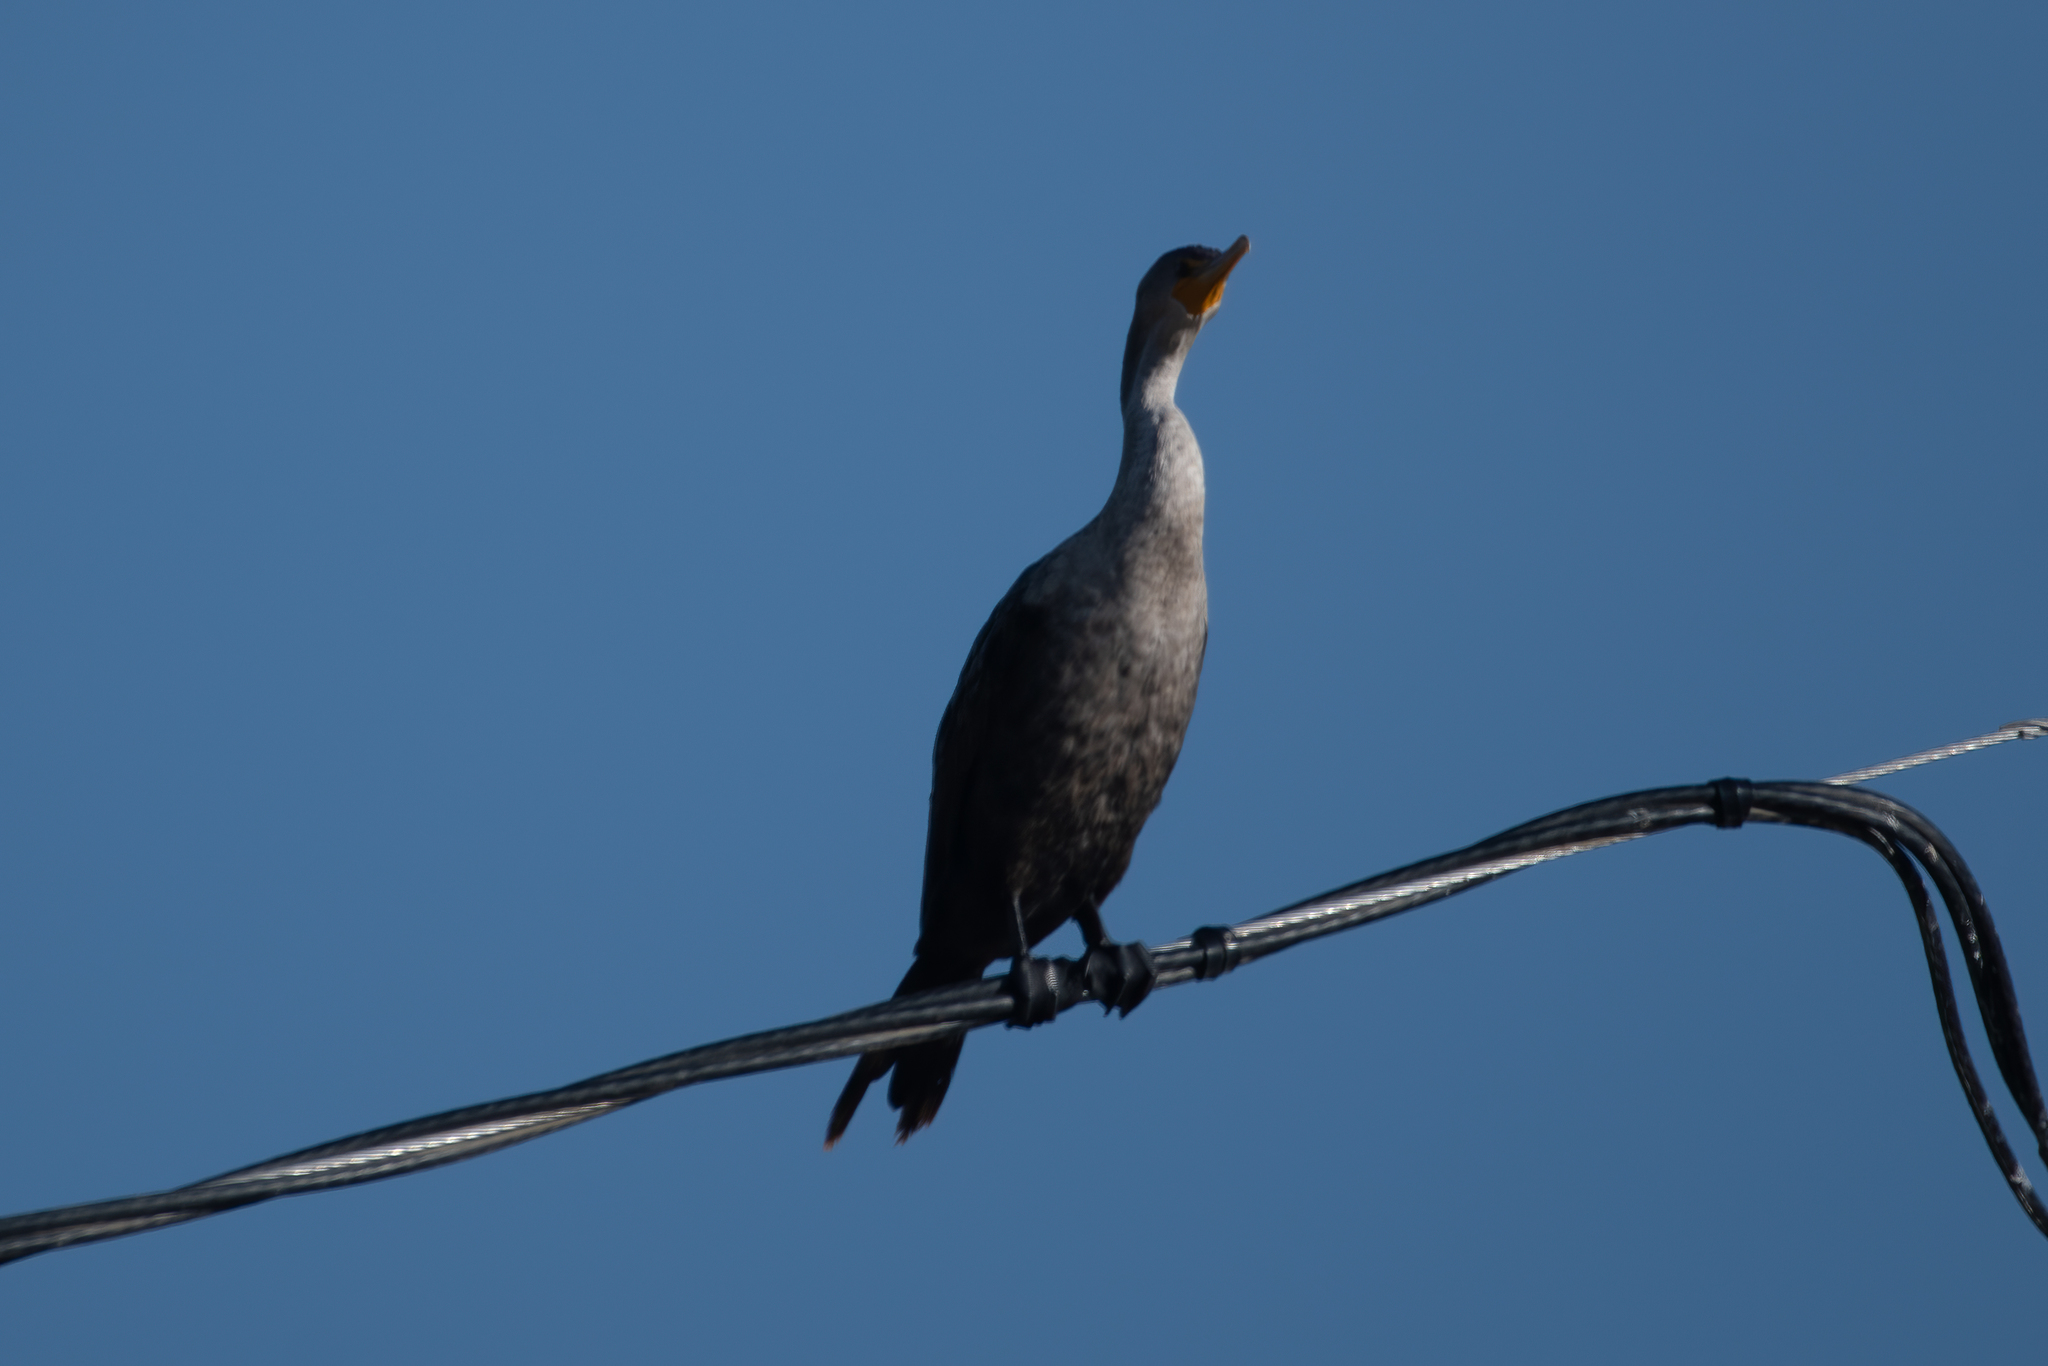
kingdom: Animalia
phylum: Chordata
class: Aves
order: Suliformes
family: Phalacrocoracidae
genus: Phalacrocorax
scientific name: Phalacrocorax auritus
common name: Double-crested cormorant
